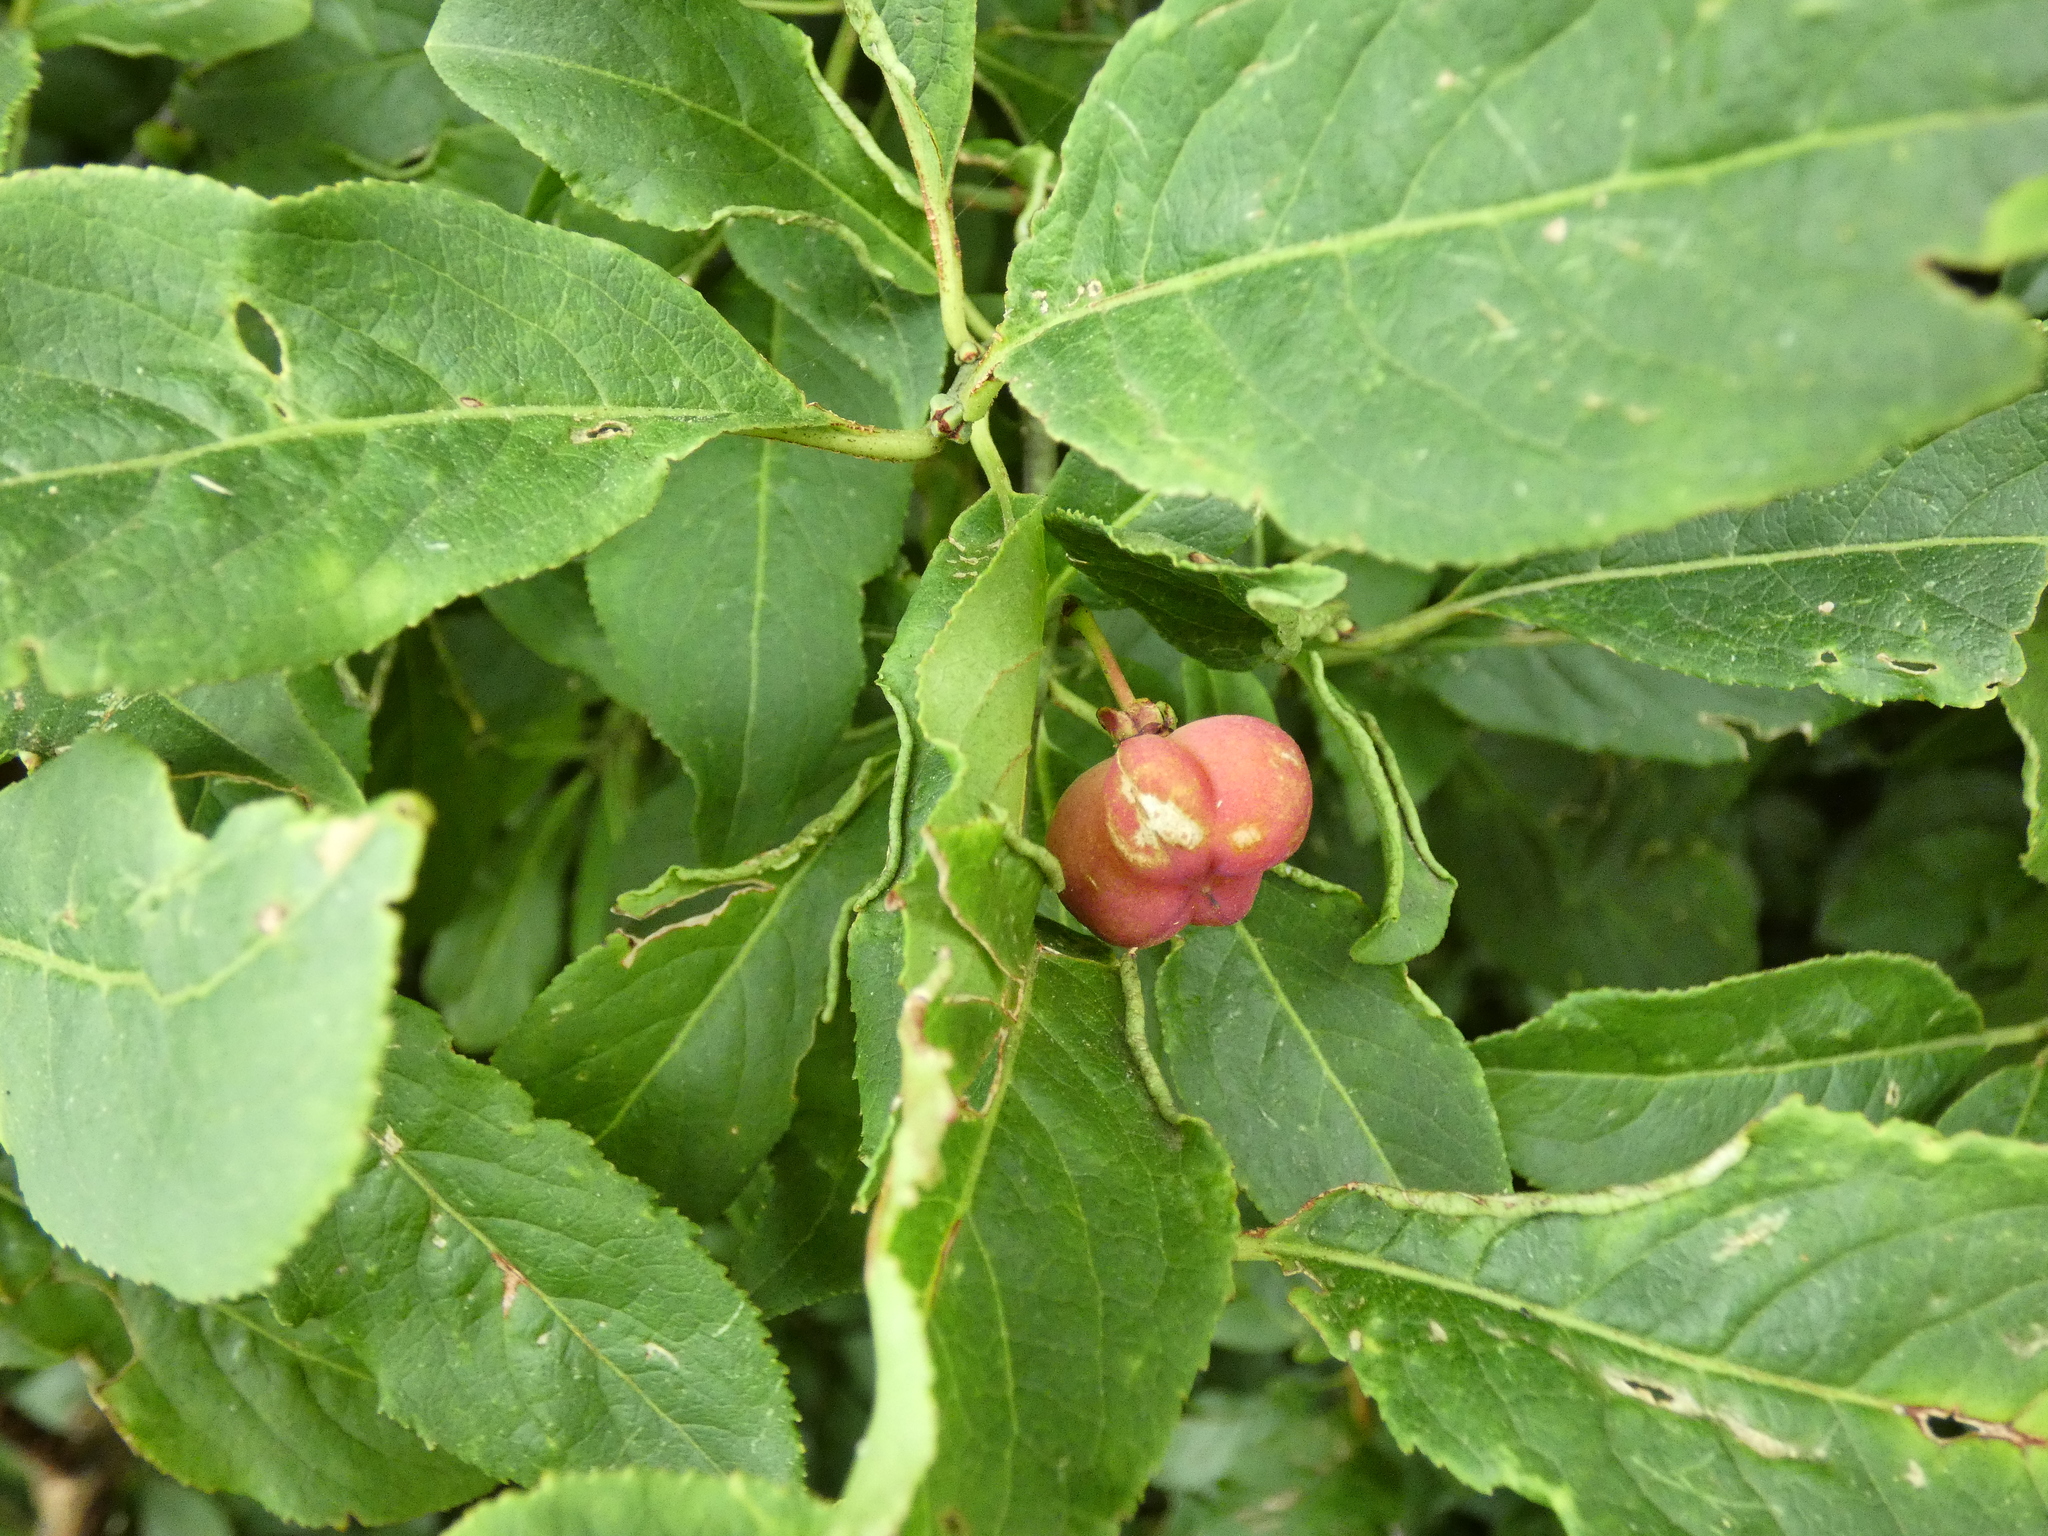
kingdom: Plantae
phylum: Tracheophyta
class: Magnoliopsida
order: Celastrales
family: Celastraceae
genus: Euonymus
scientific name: Euonymus europaeus
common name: Spindle
